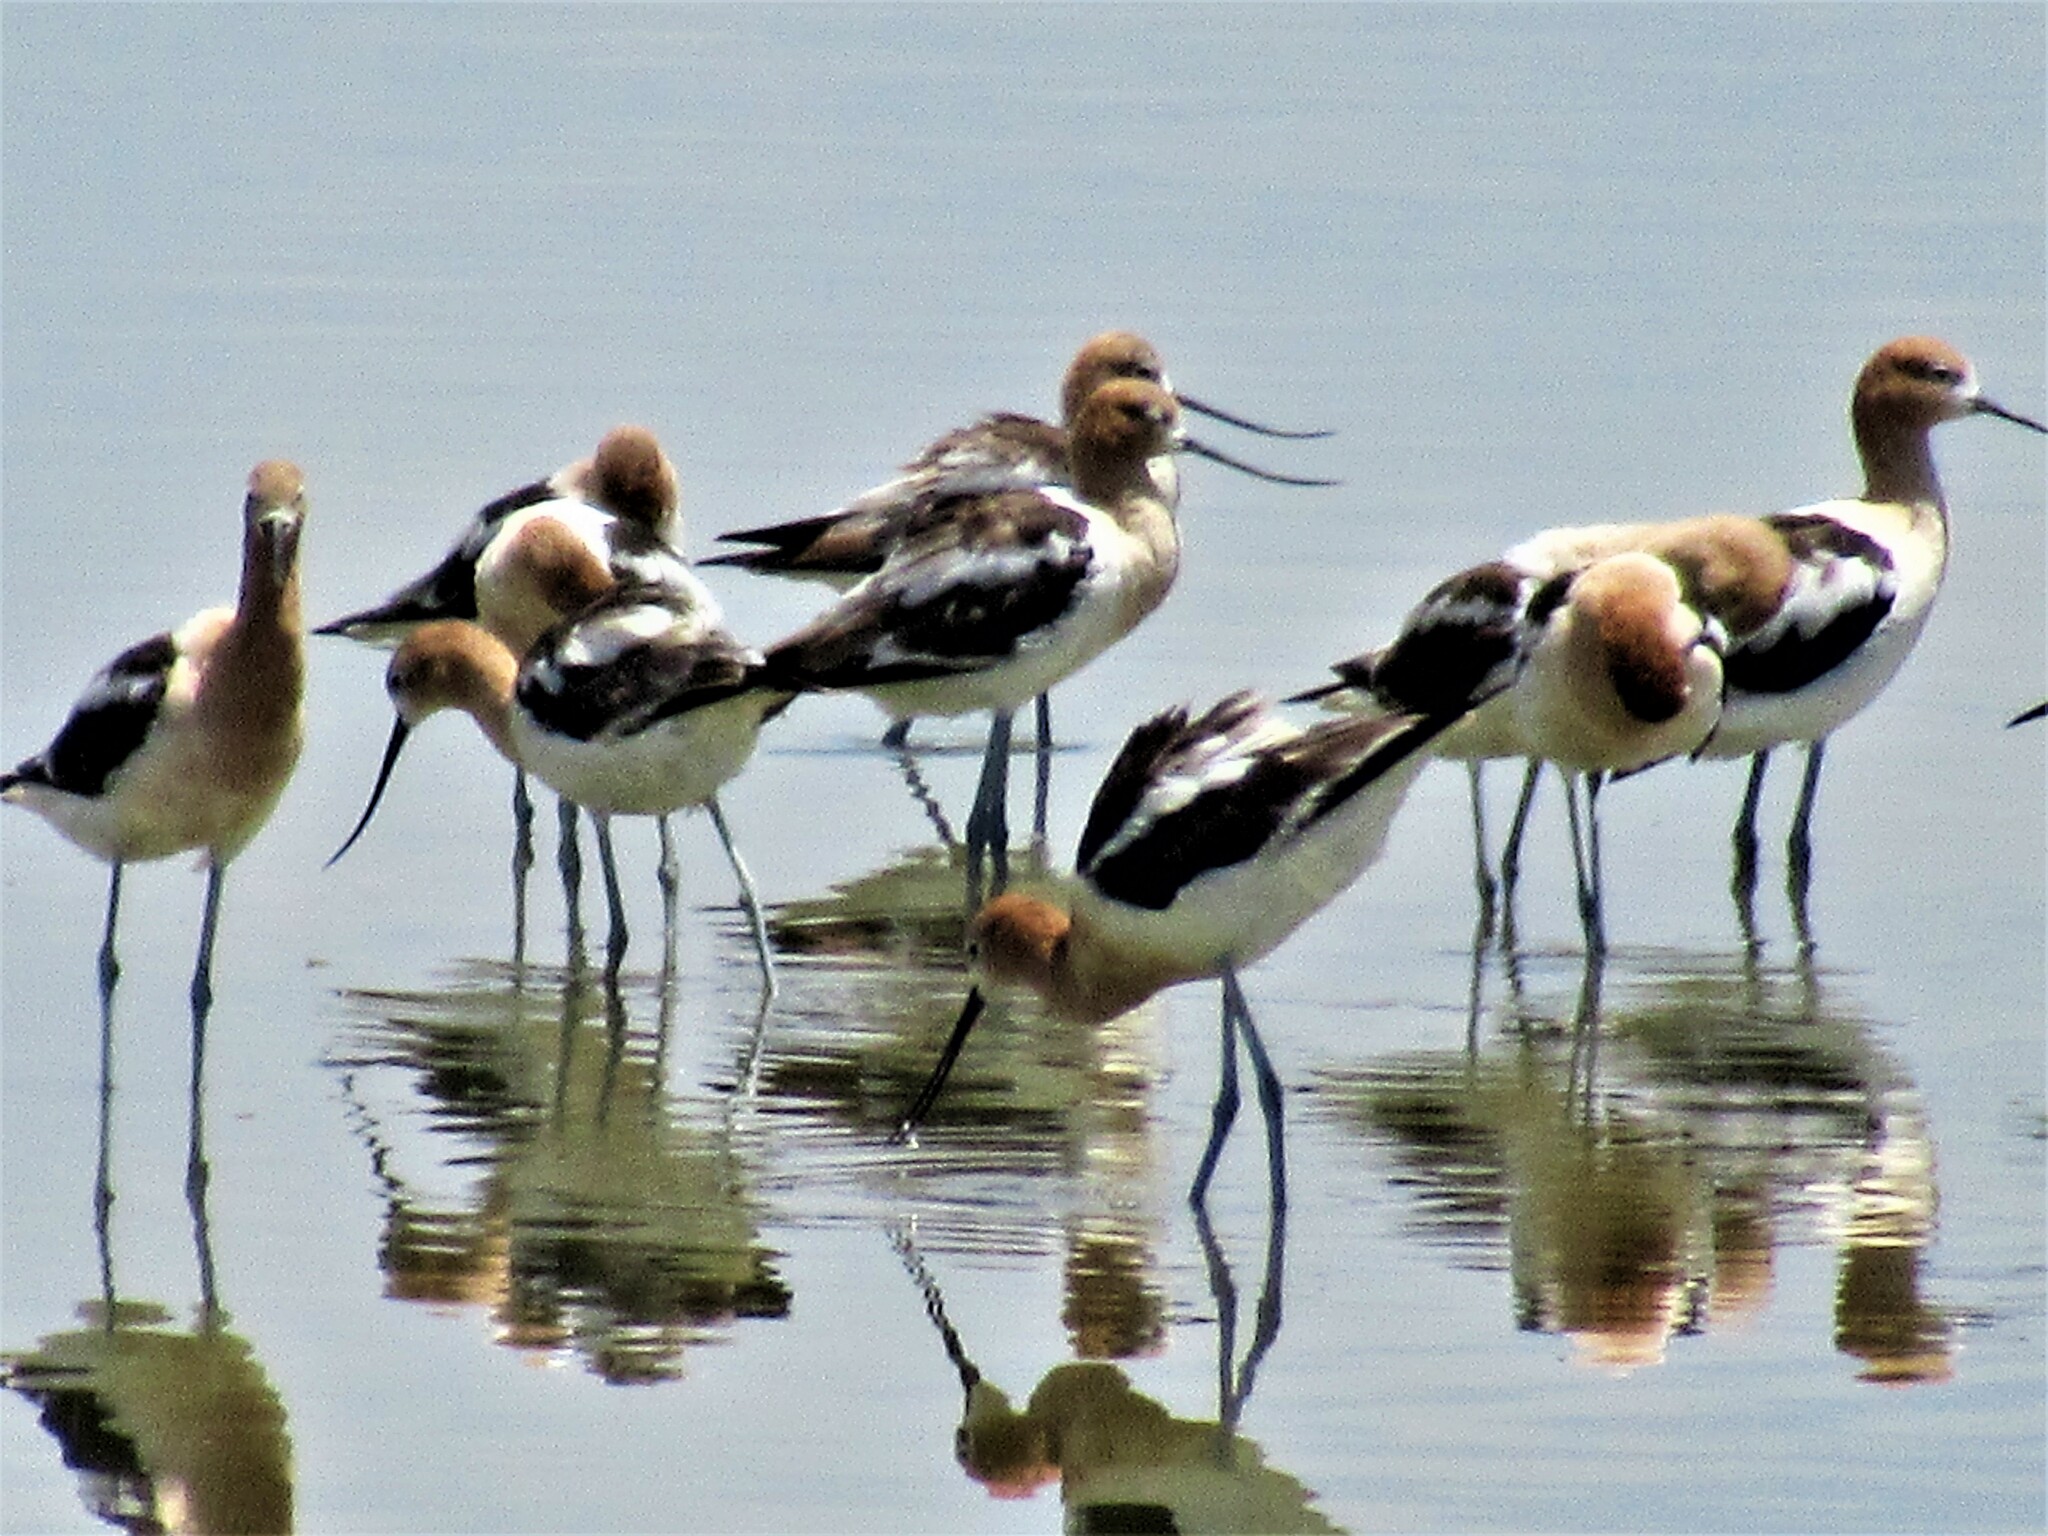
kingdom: Animalia
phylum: Chordata
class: Aves
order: Charadriiformes
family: Recurvirostridae
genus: Recurvirostra
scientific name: Recurvirostra americana
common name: American avocet
